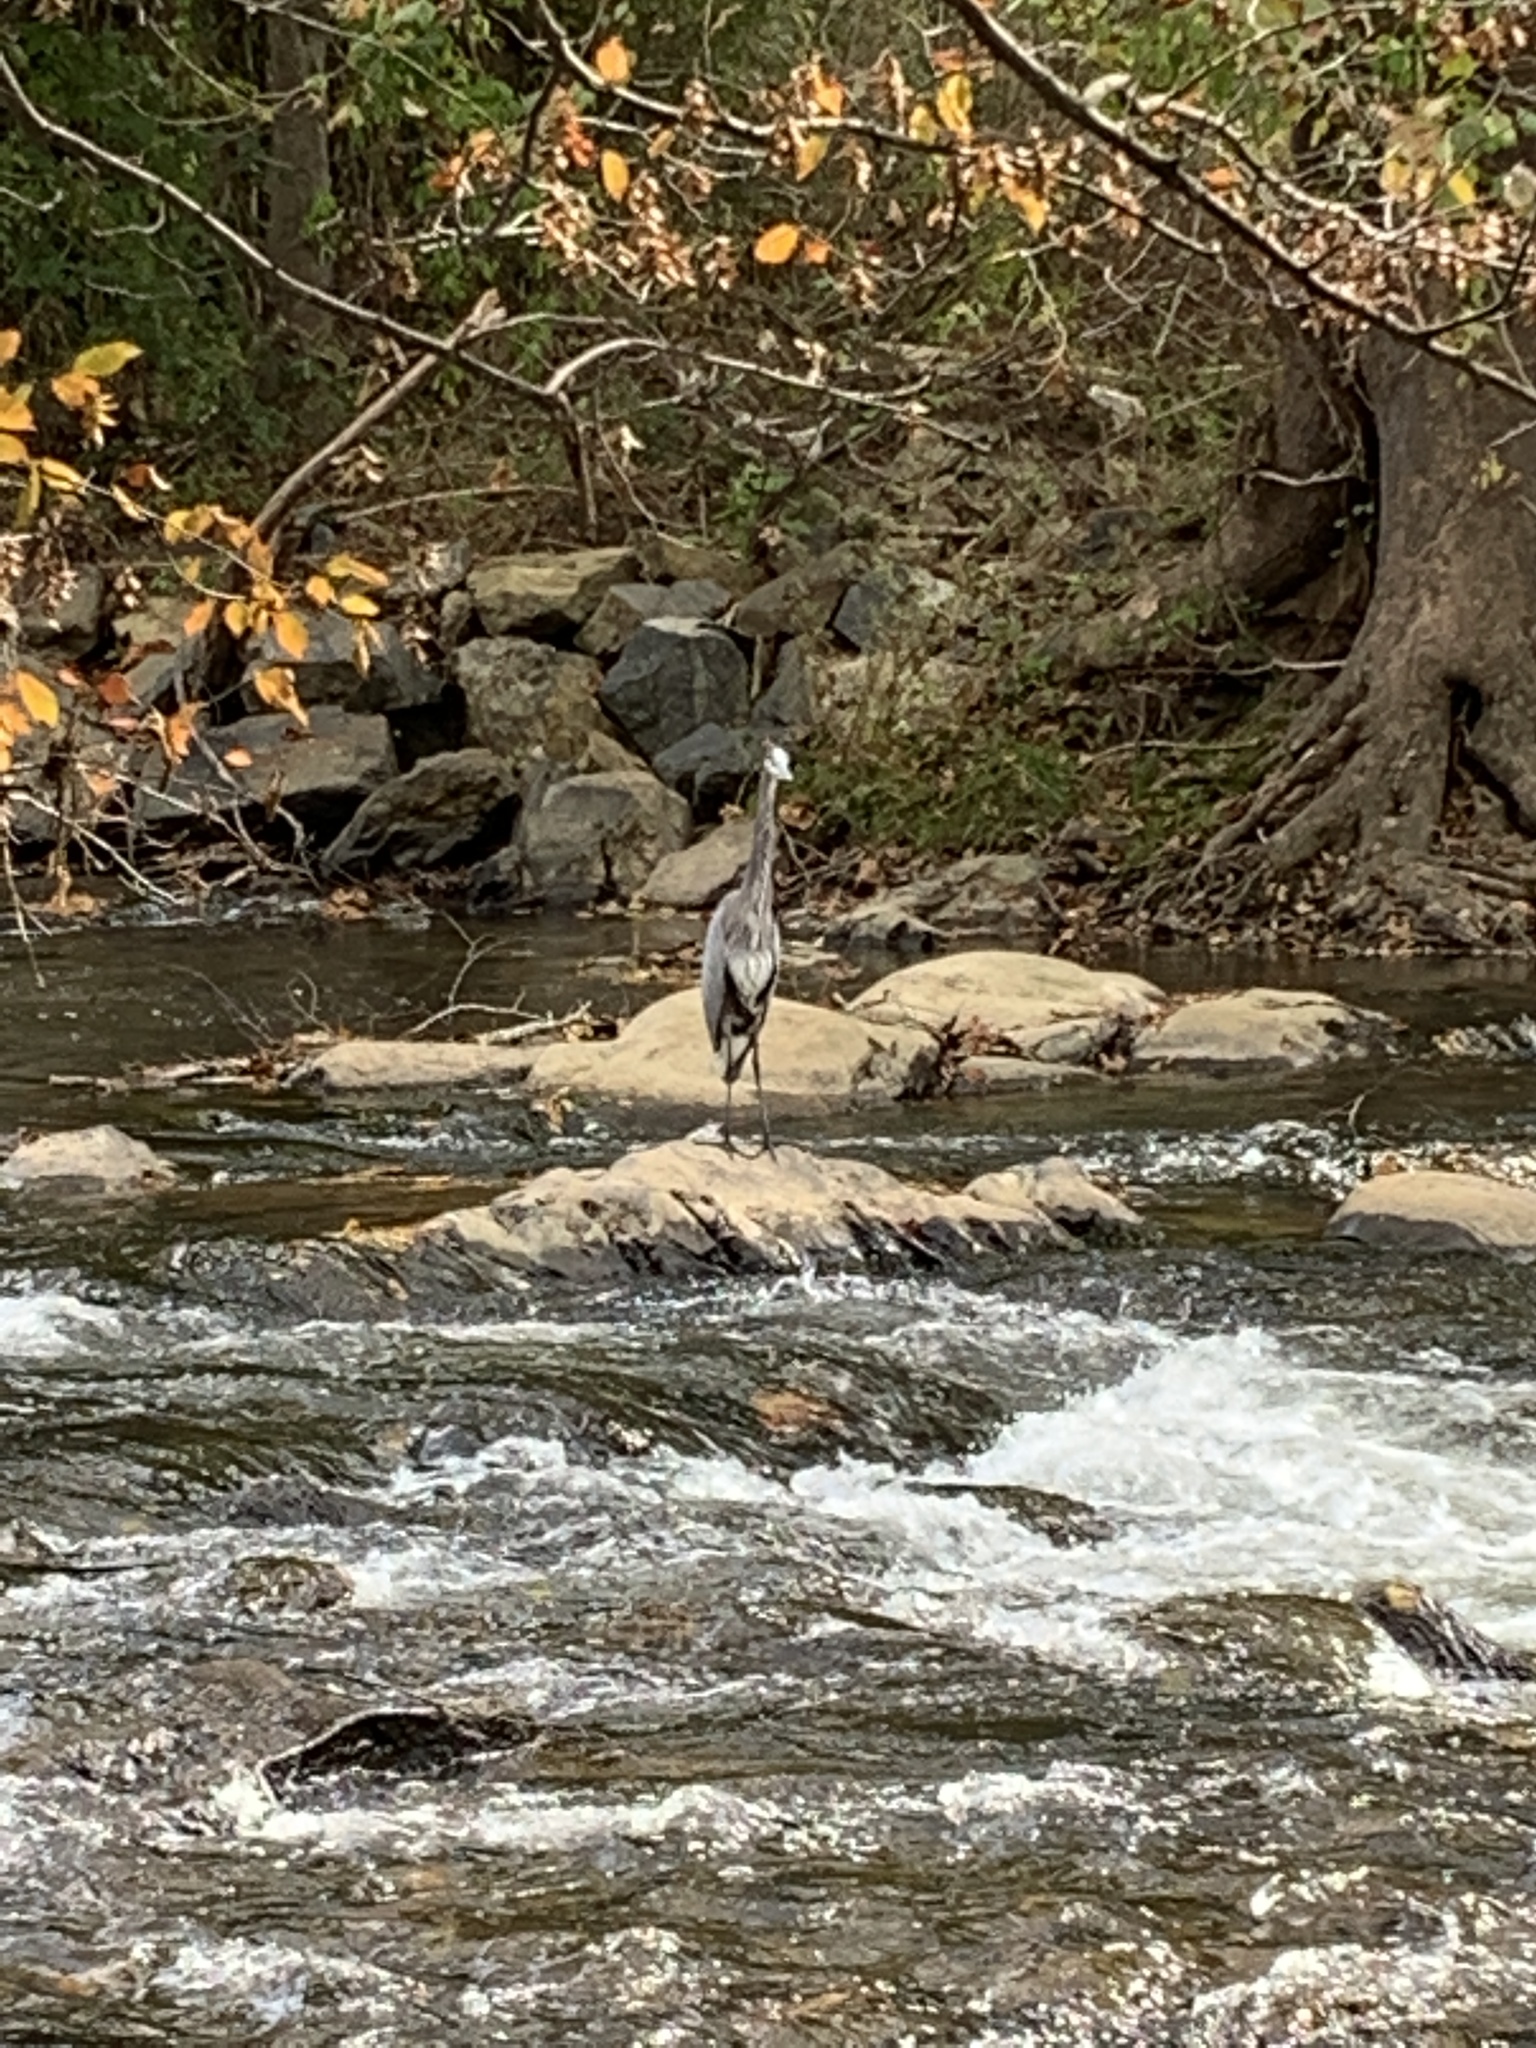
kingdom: Animalia
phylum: Chordata
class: Aves
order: Pelecaniformes
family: Ardeidae
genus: Ardea
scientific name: Ardea herodias
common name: Great blue heron
